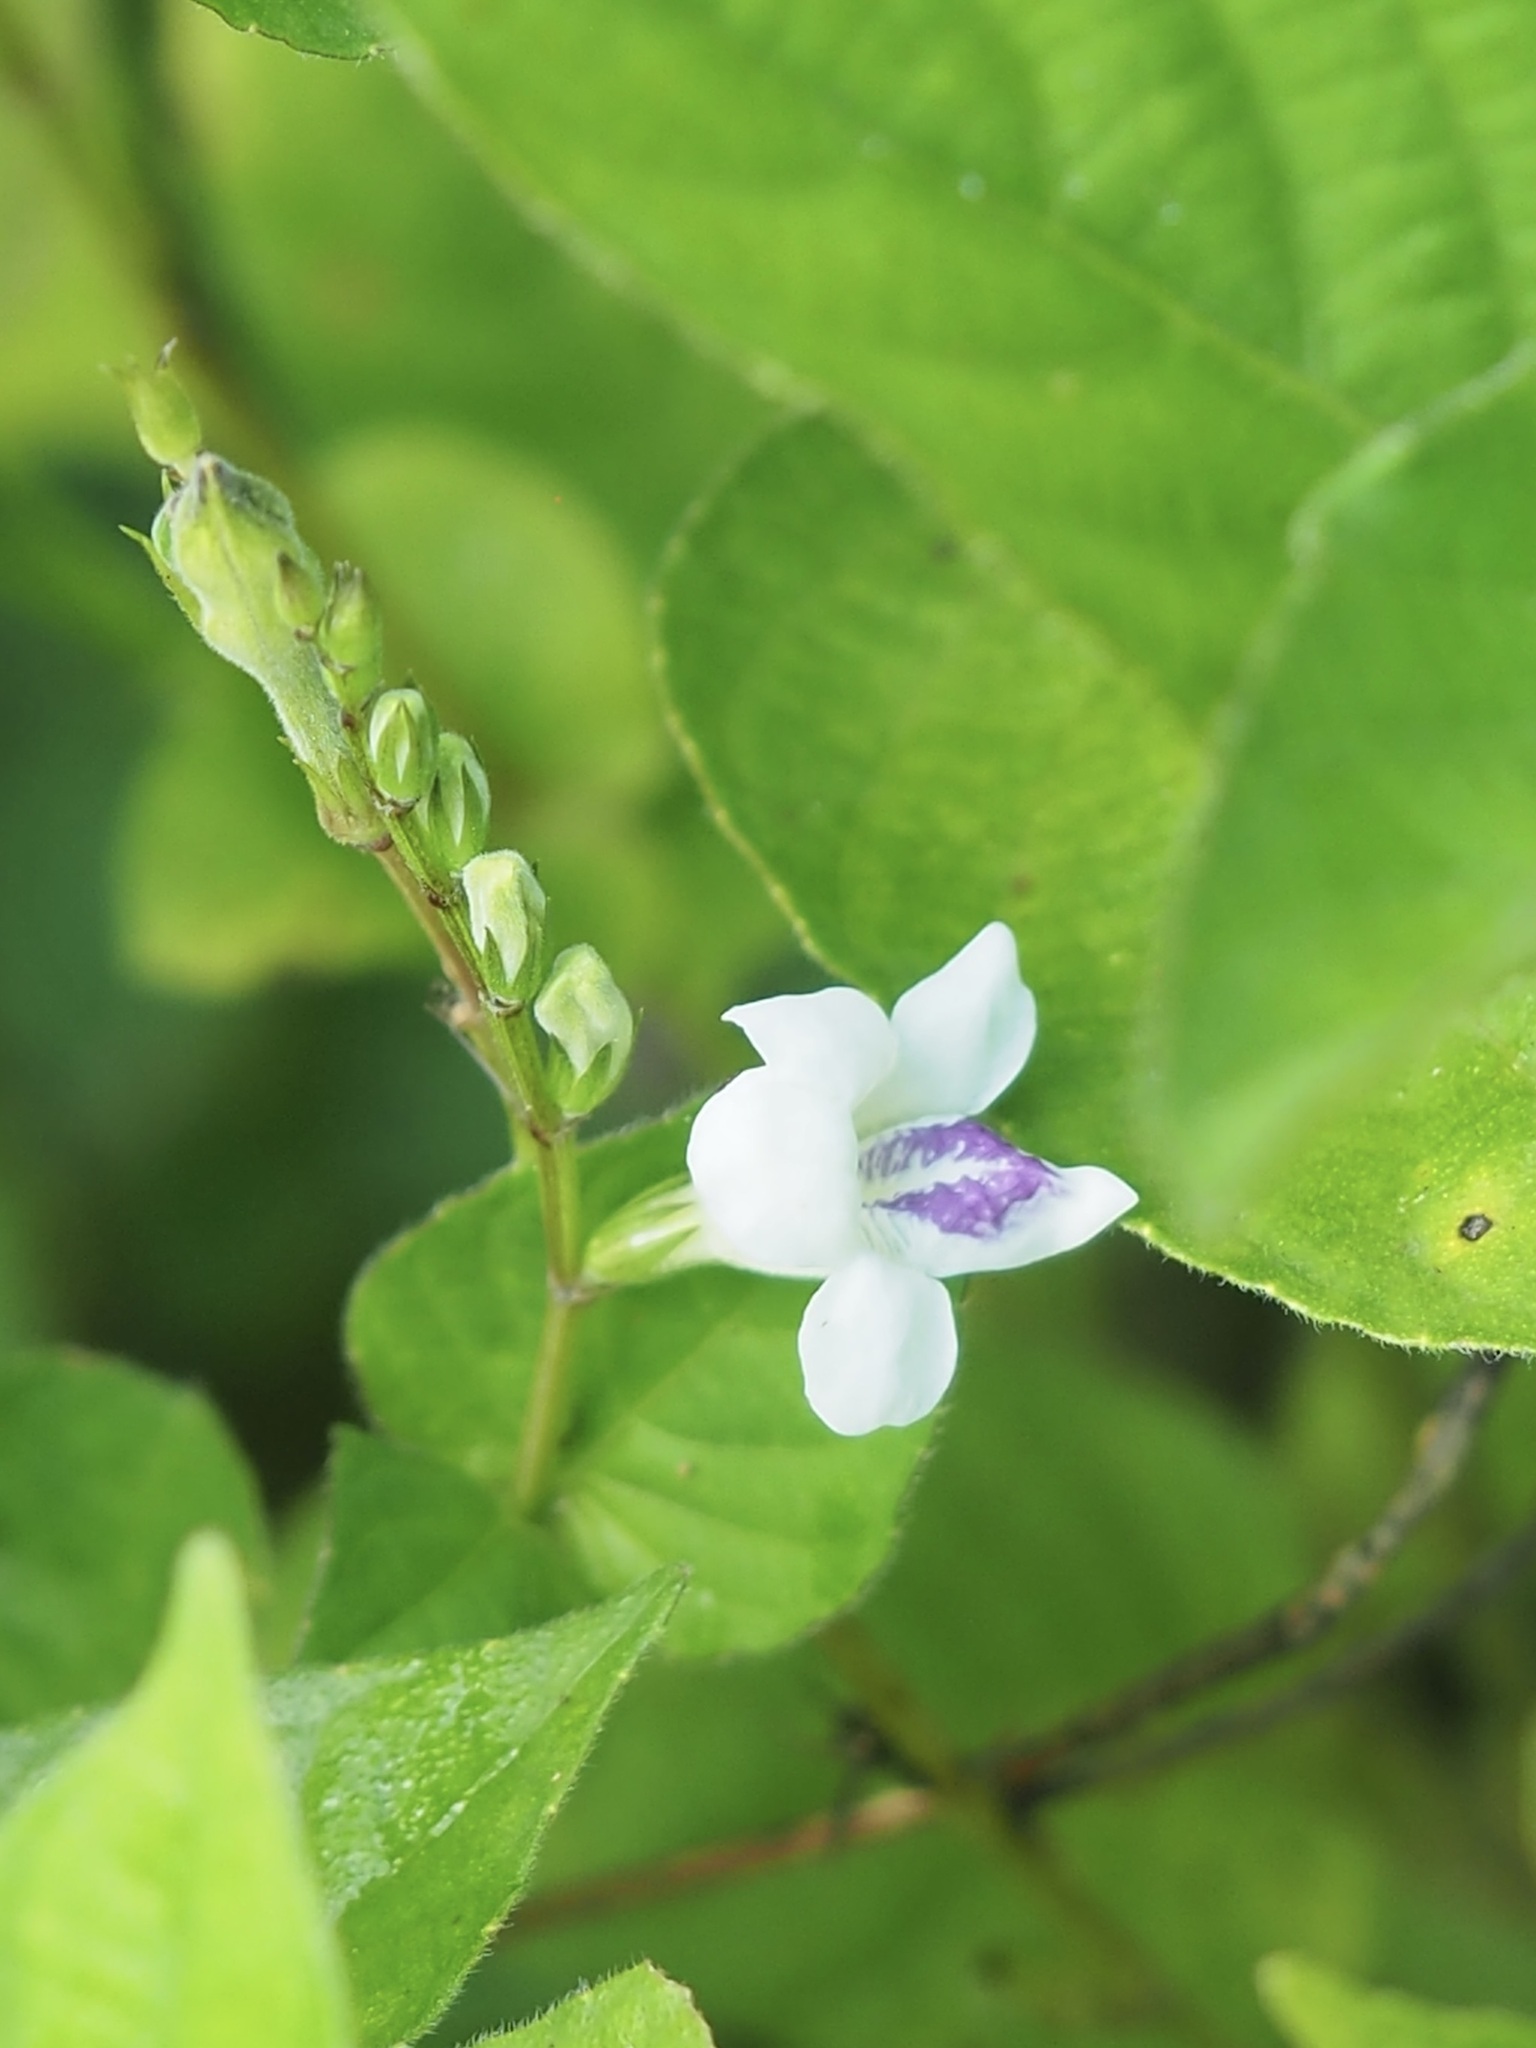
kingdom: Plantae
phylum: Tracheophyta
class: Magnoliopsida
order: Lamiales
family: Acanthaceae
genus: Asystasia
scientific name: Asystasia intrusa
